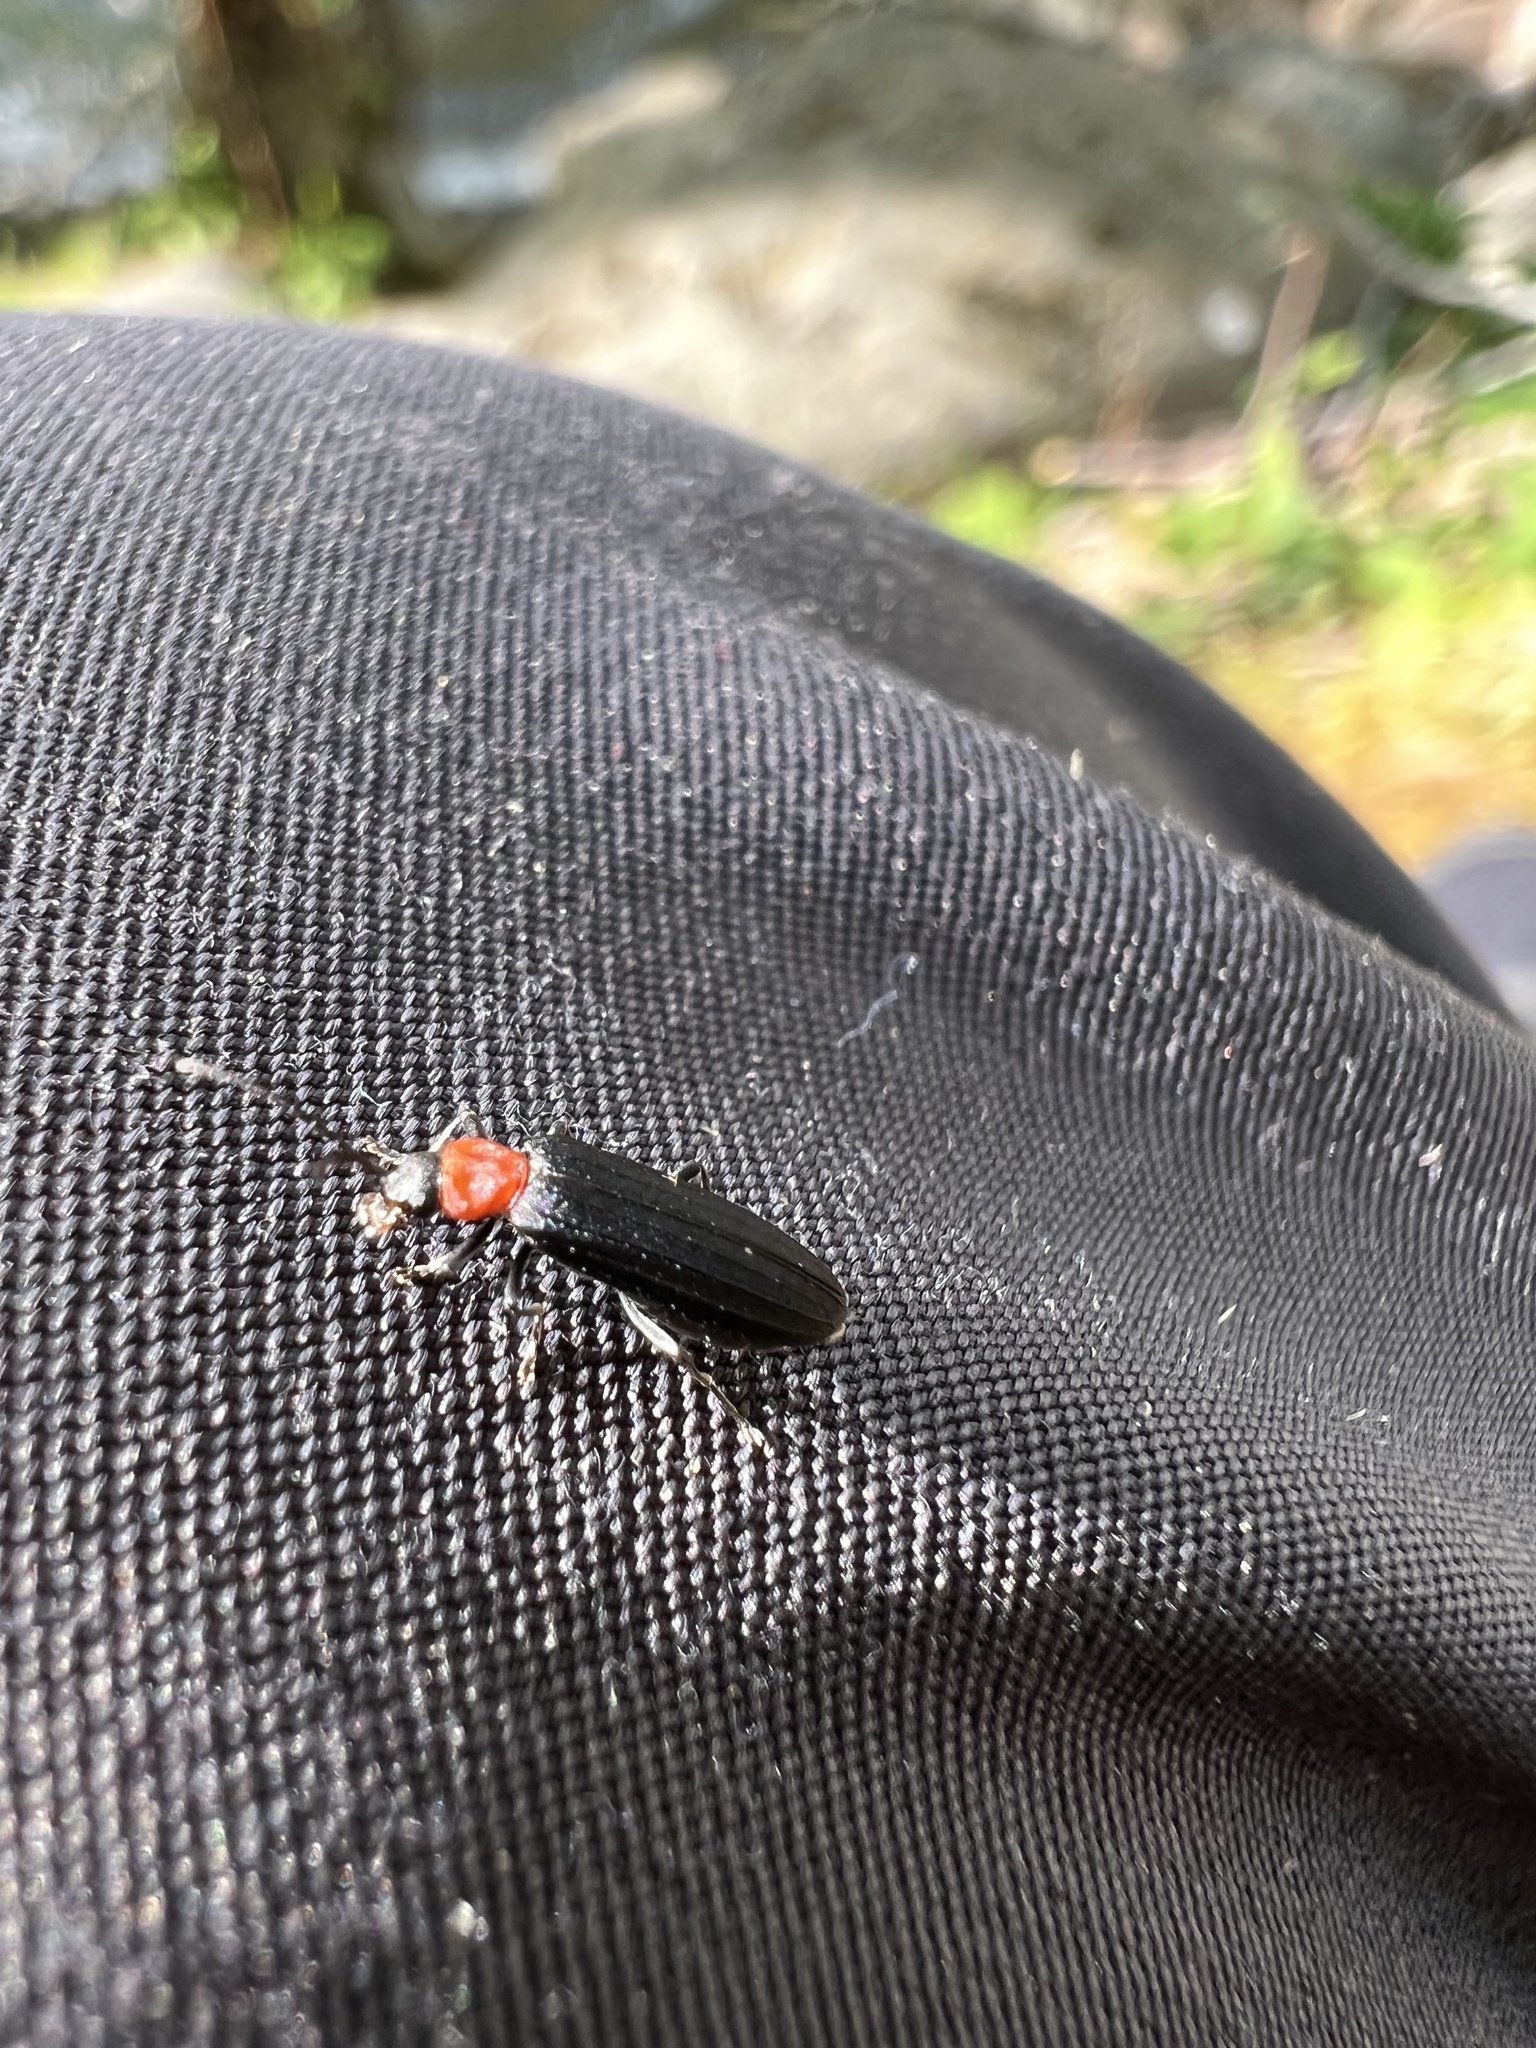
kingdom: Animalia
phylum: Arthropoda
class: Insecta
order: Coleoptera
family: Oedemeridae
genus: Ischnomera
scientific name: Ischnomera
